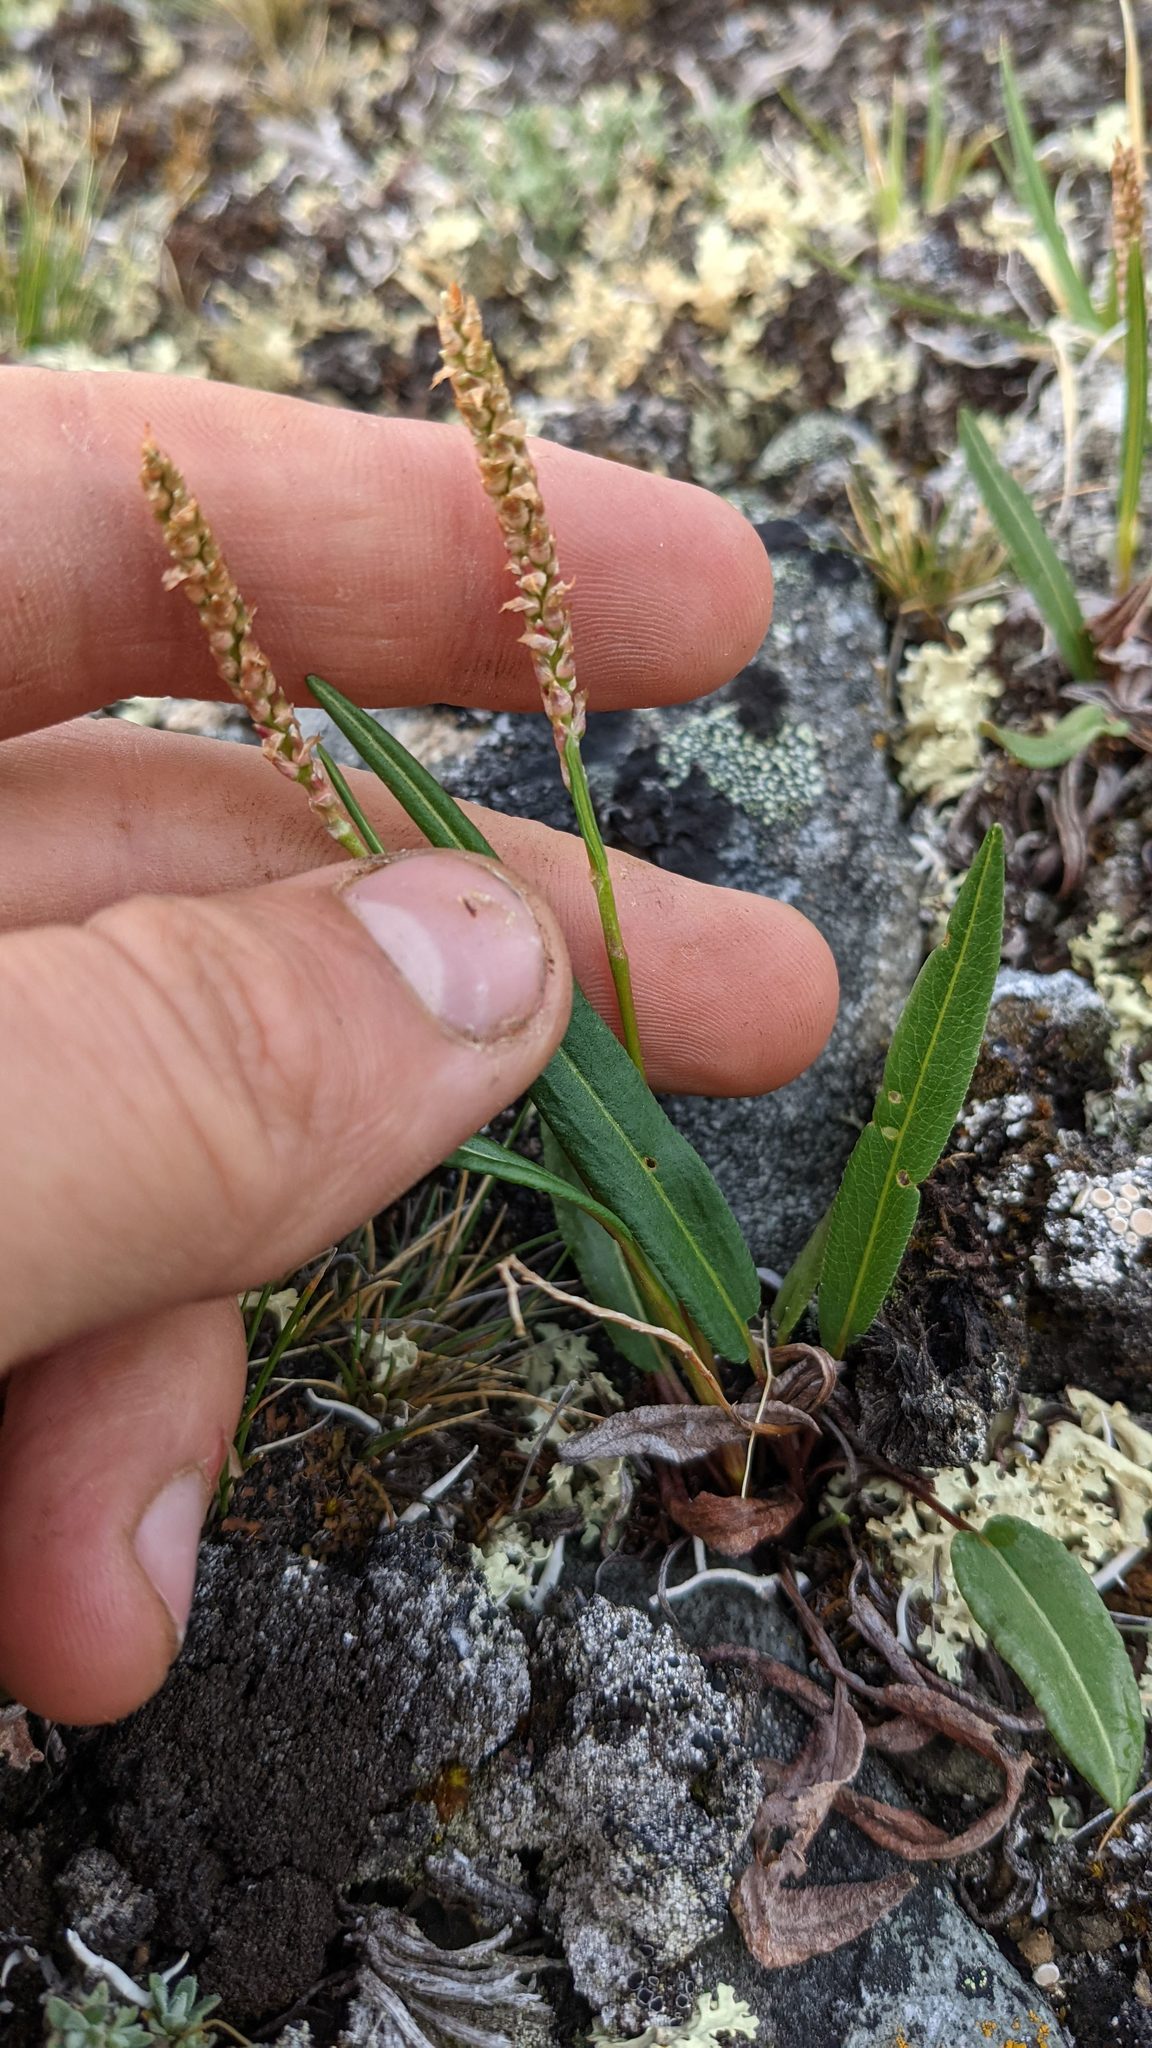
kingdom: Plantae
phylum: Tracheophyta
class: Magnoliopsida
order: Caryophyllales
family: Polygonaceae
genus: Bistorta
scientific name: Bistorta vivipara
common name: Alpine bistort
